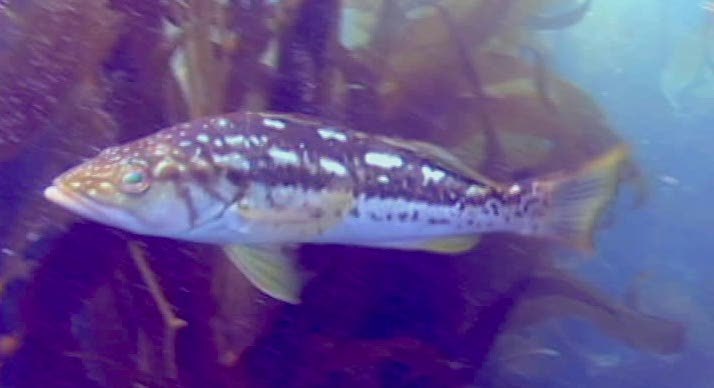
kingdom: Animalia
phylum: Chordata
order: Perciformes
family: Serranidae
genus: Paralabrax
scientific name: Paralabrax clathratus
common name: Kelp bass
